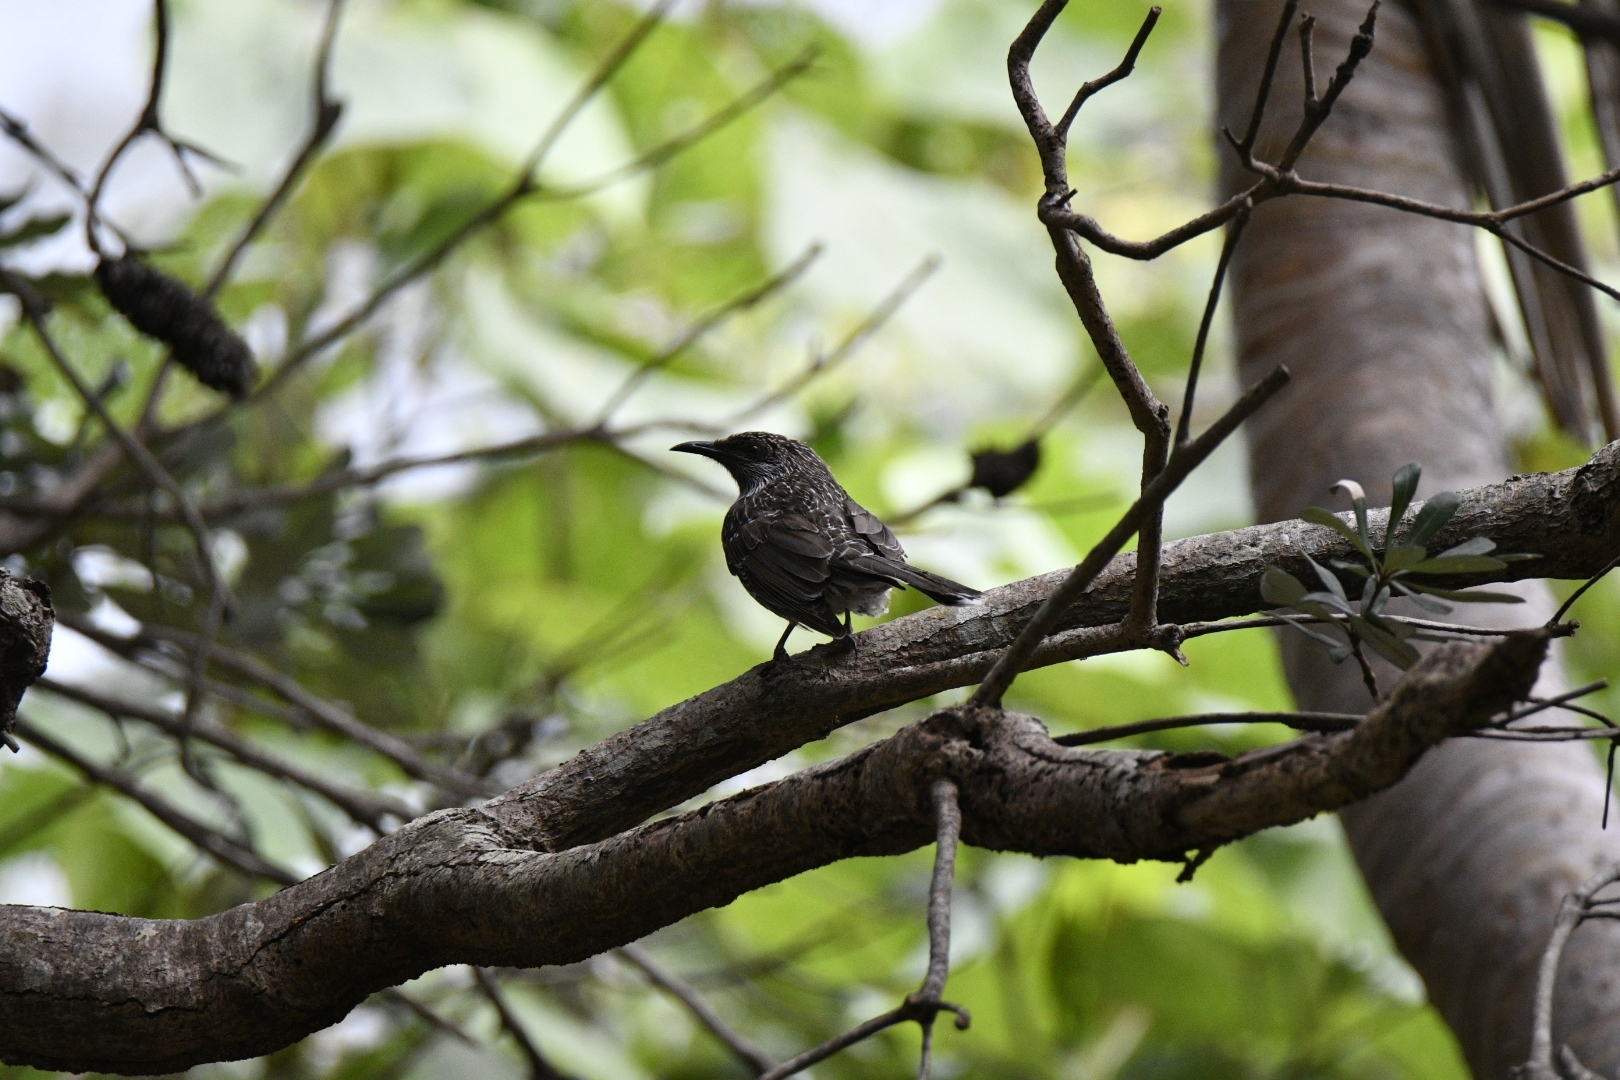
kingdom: Animalia
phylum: Chordata
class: Aves
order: Passeriformes
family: Meliphagidae
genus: Anthochaera
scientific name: Anthochaera chrysoptera
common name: Little wattlebird
